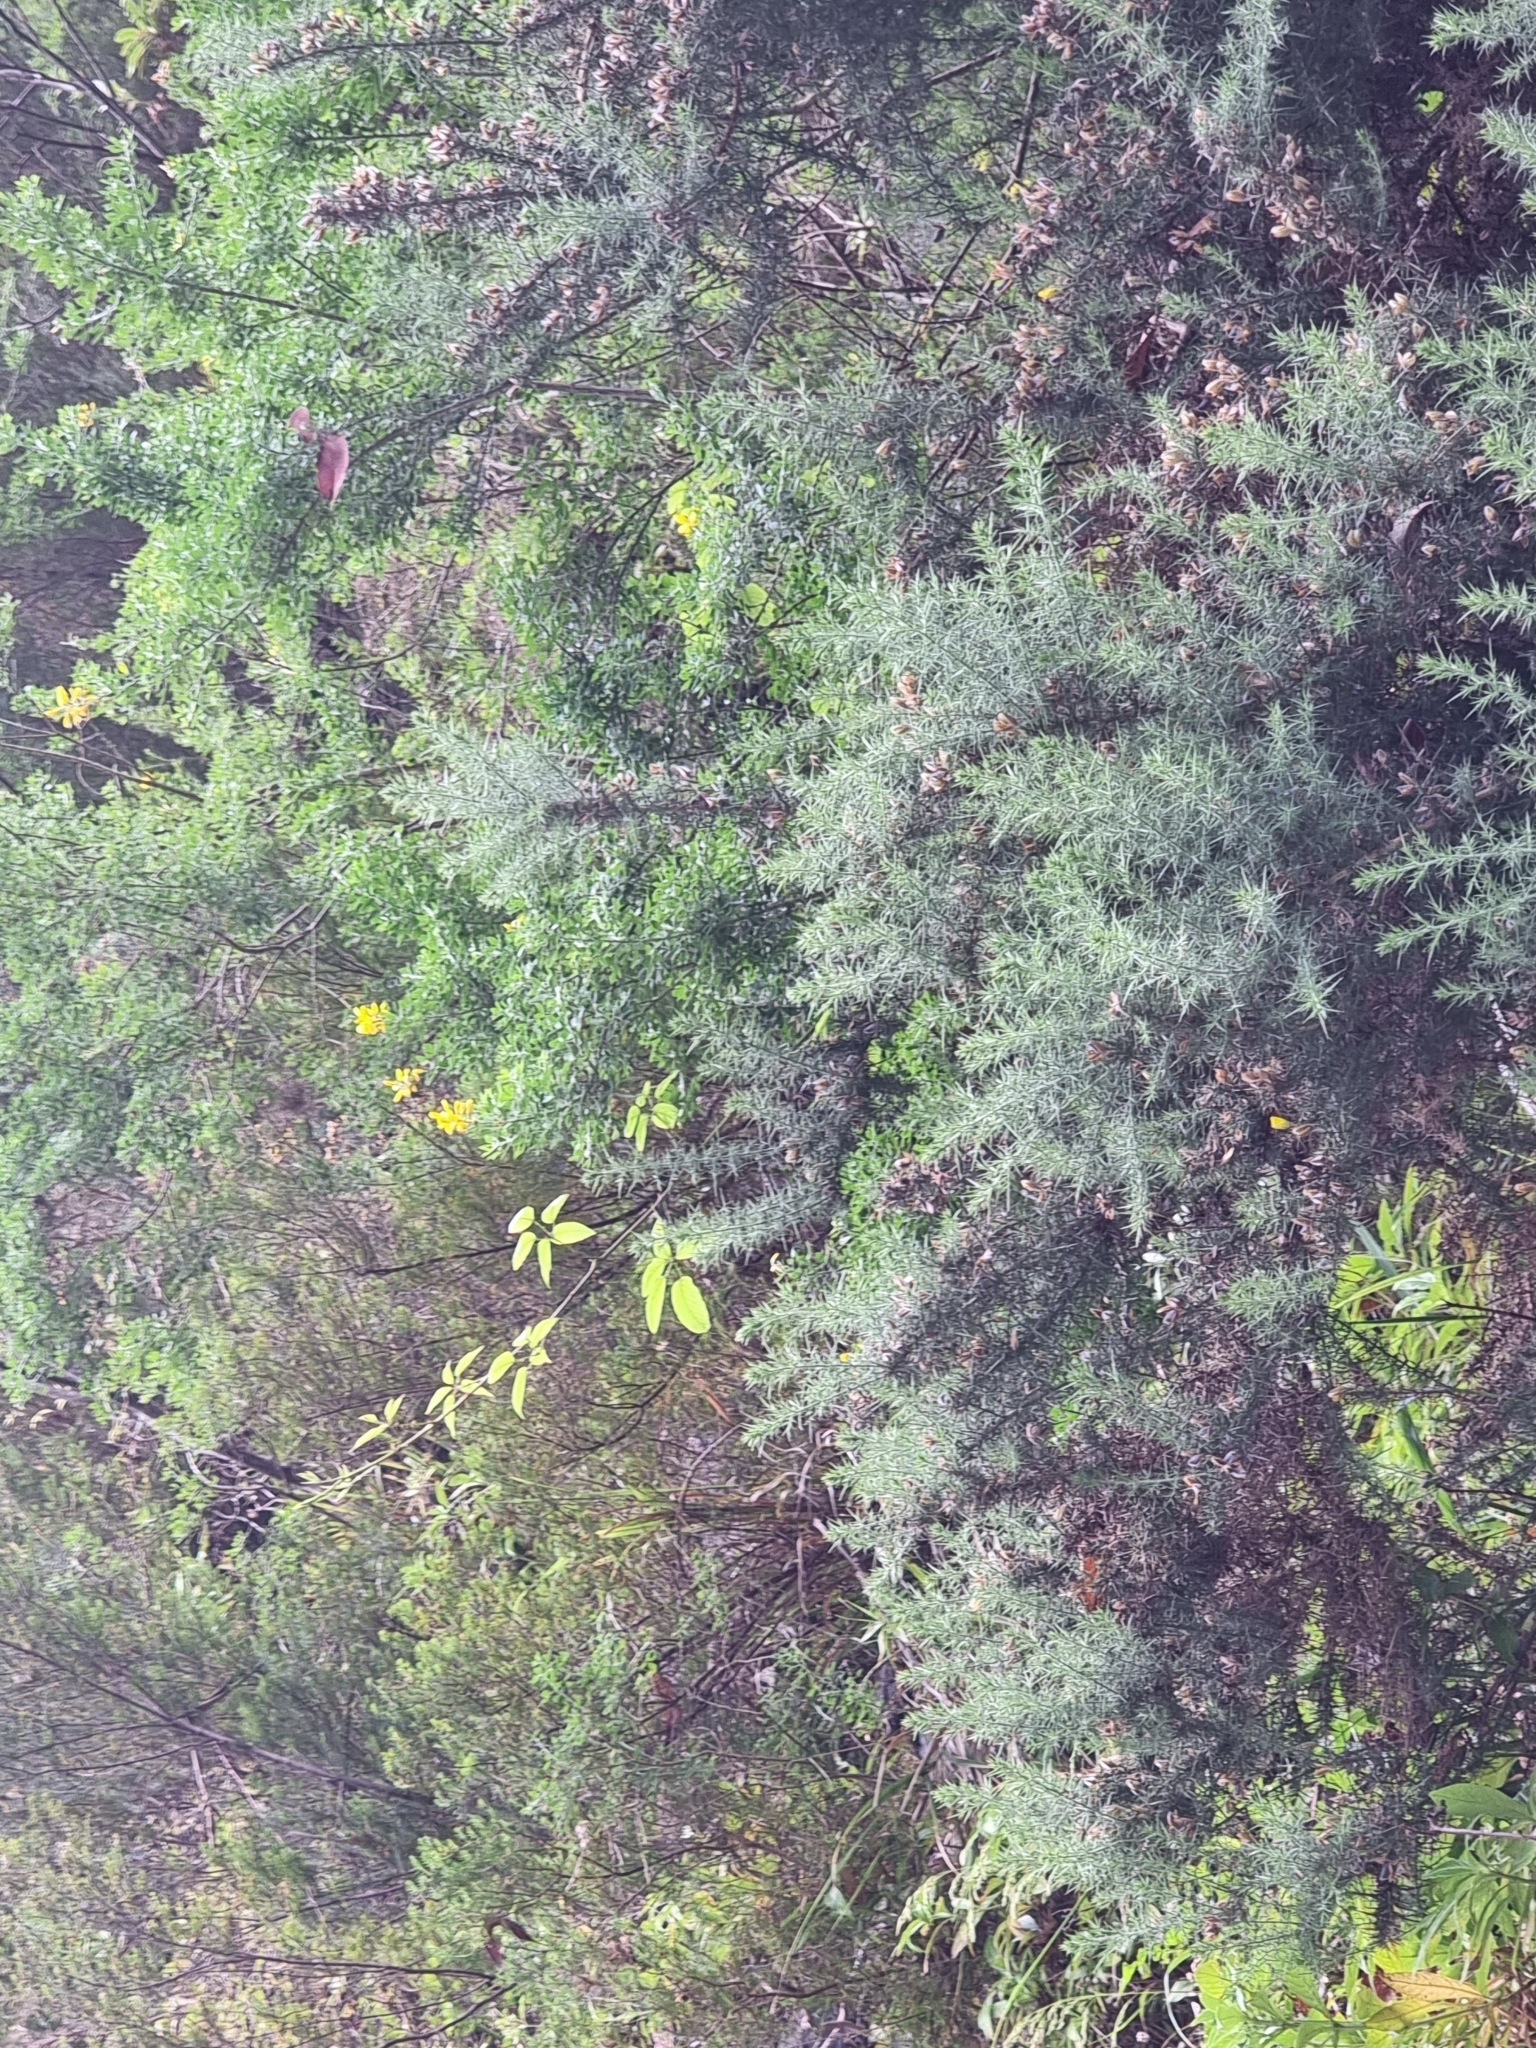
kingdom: Plantae
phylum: Tracheophyta
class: Magnoliopsida
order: Fabales
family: Fabaceae
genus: Ulex
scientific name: Ulex europaeus
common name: Common gorse
